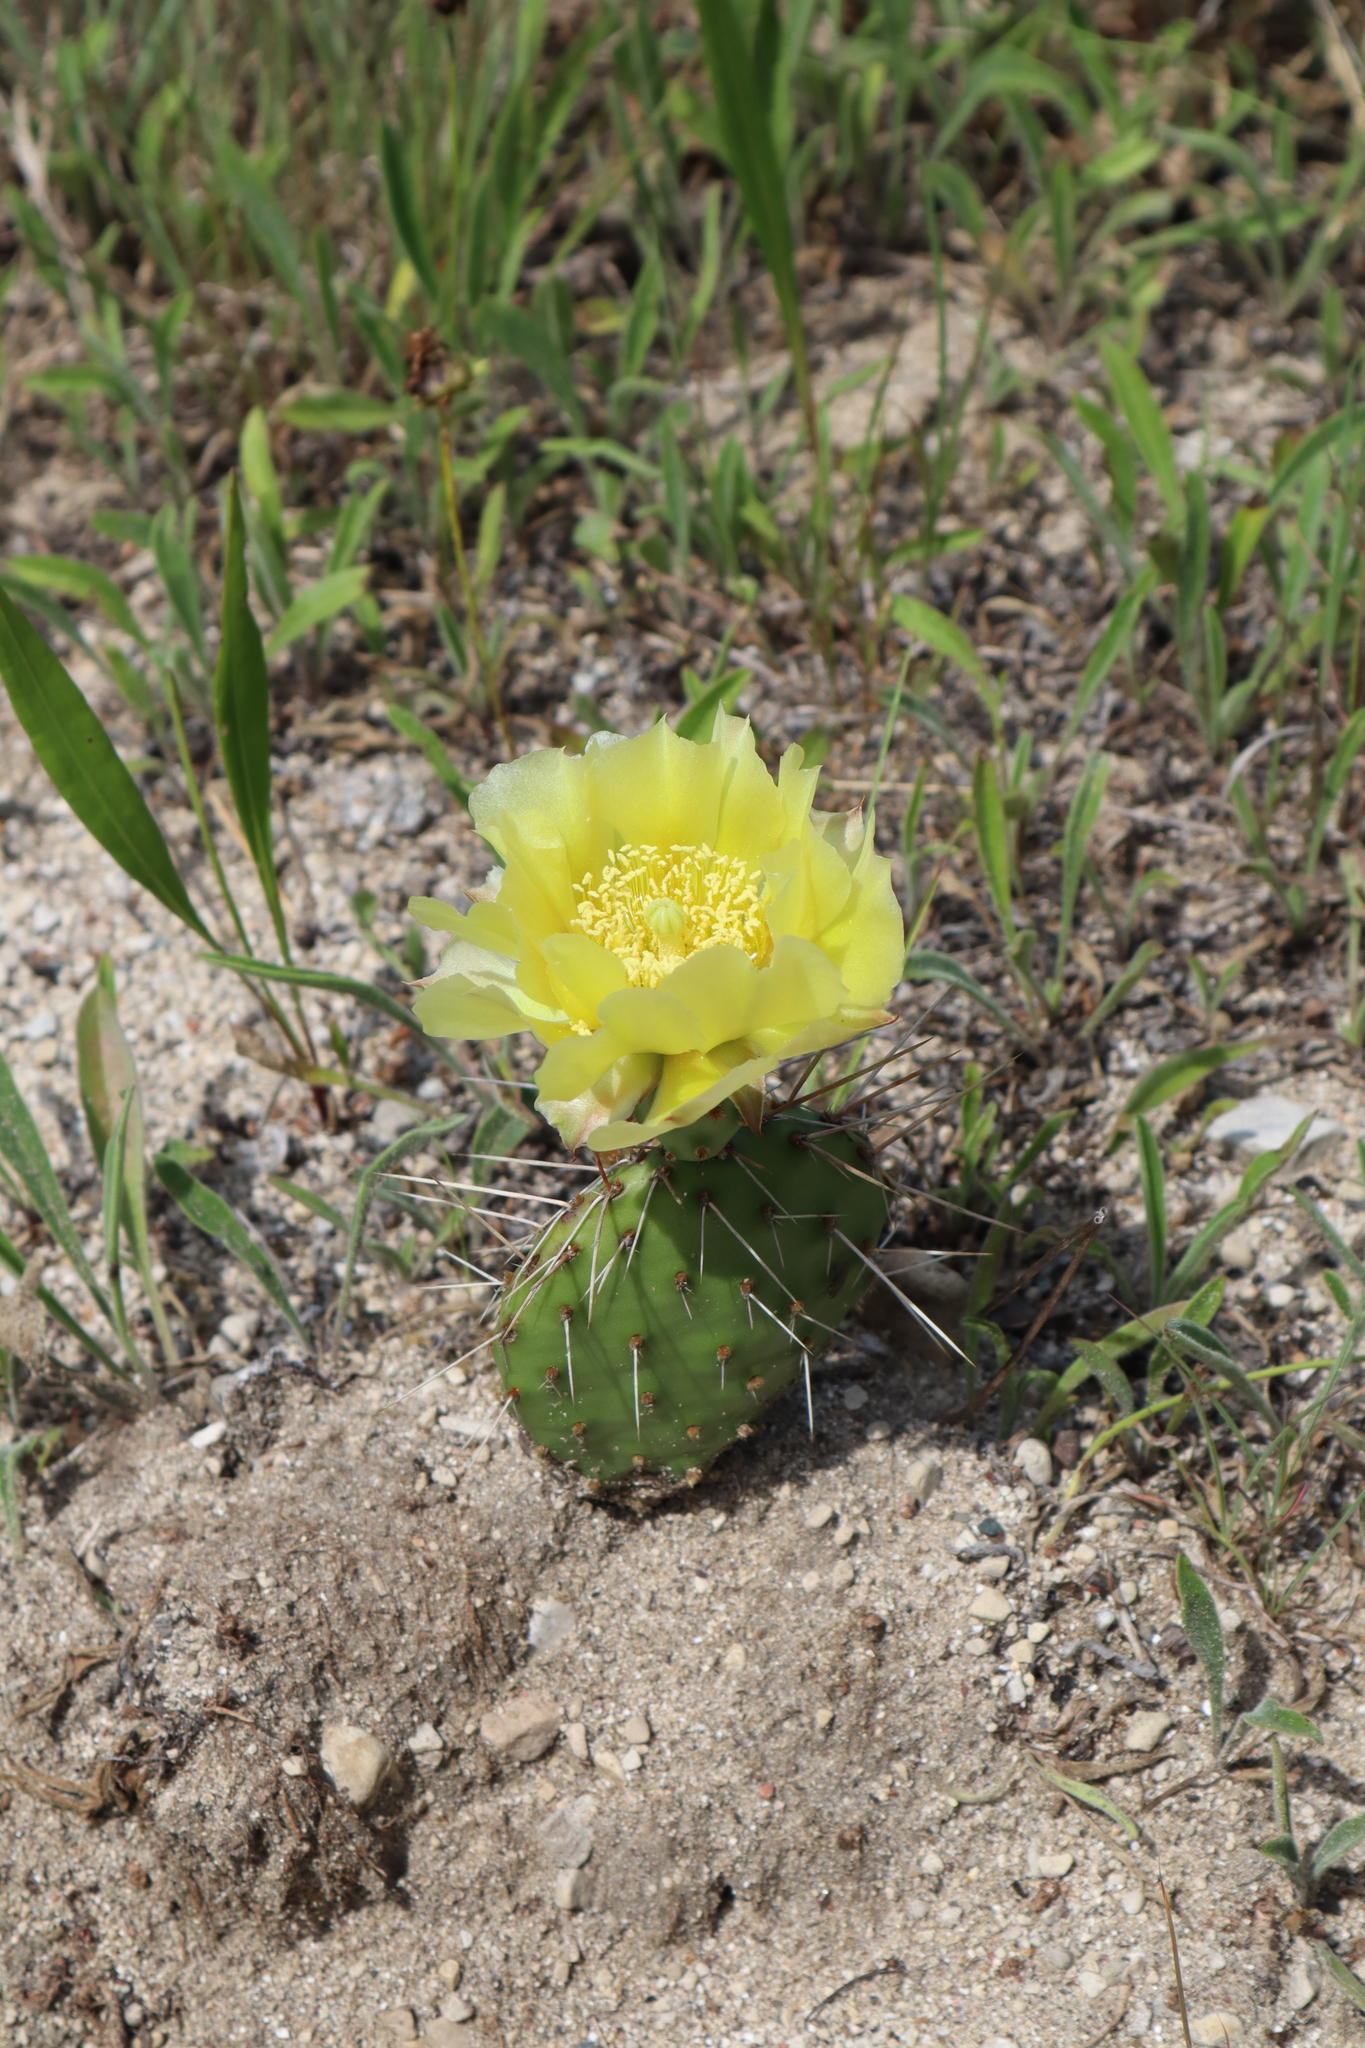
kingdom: Plantae
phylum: Tracheophyta
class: Magnoliopsida
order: Caryophyllales
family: Cactaceae
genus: Opuntia
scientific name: Opuntia humifusa
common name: Eastern prickly-pear
